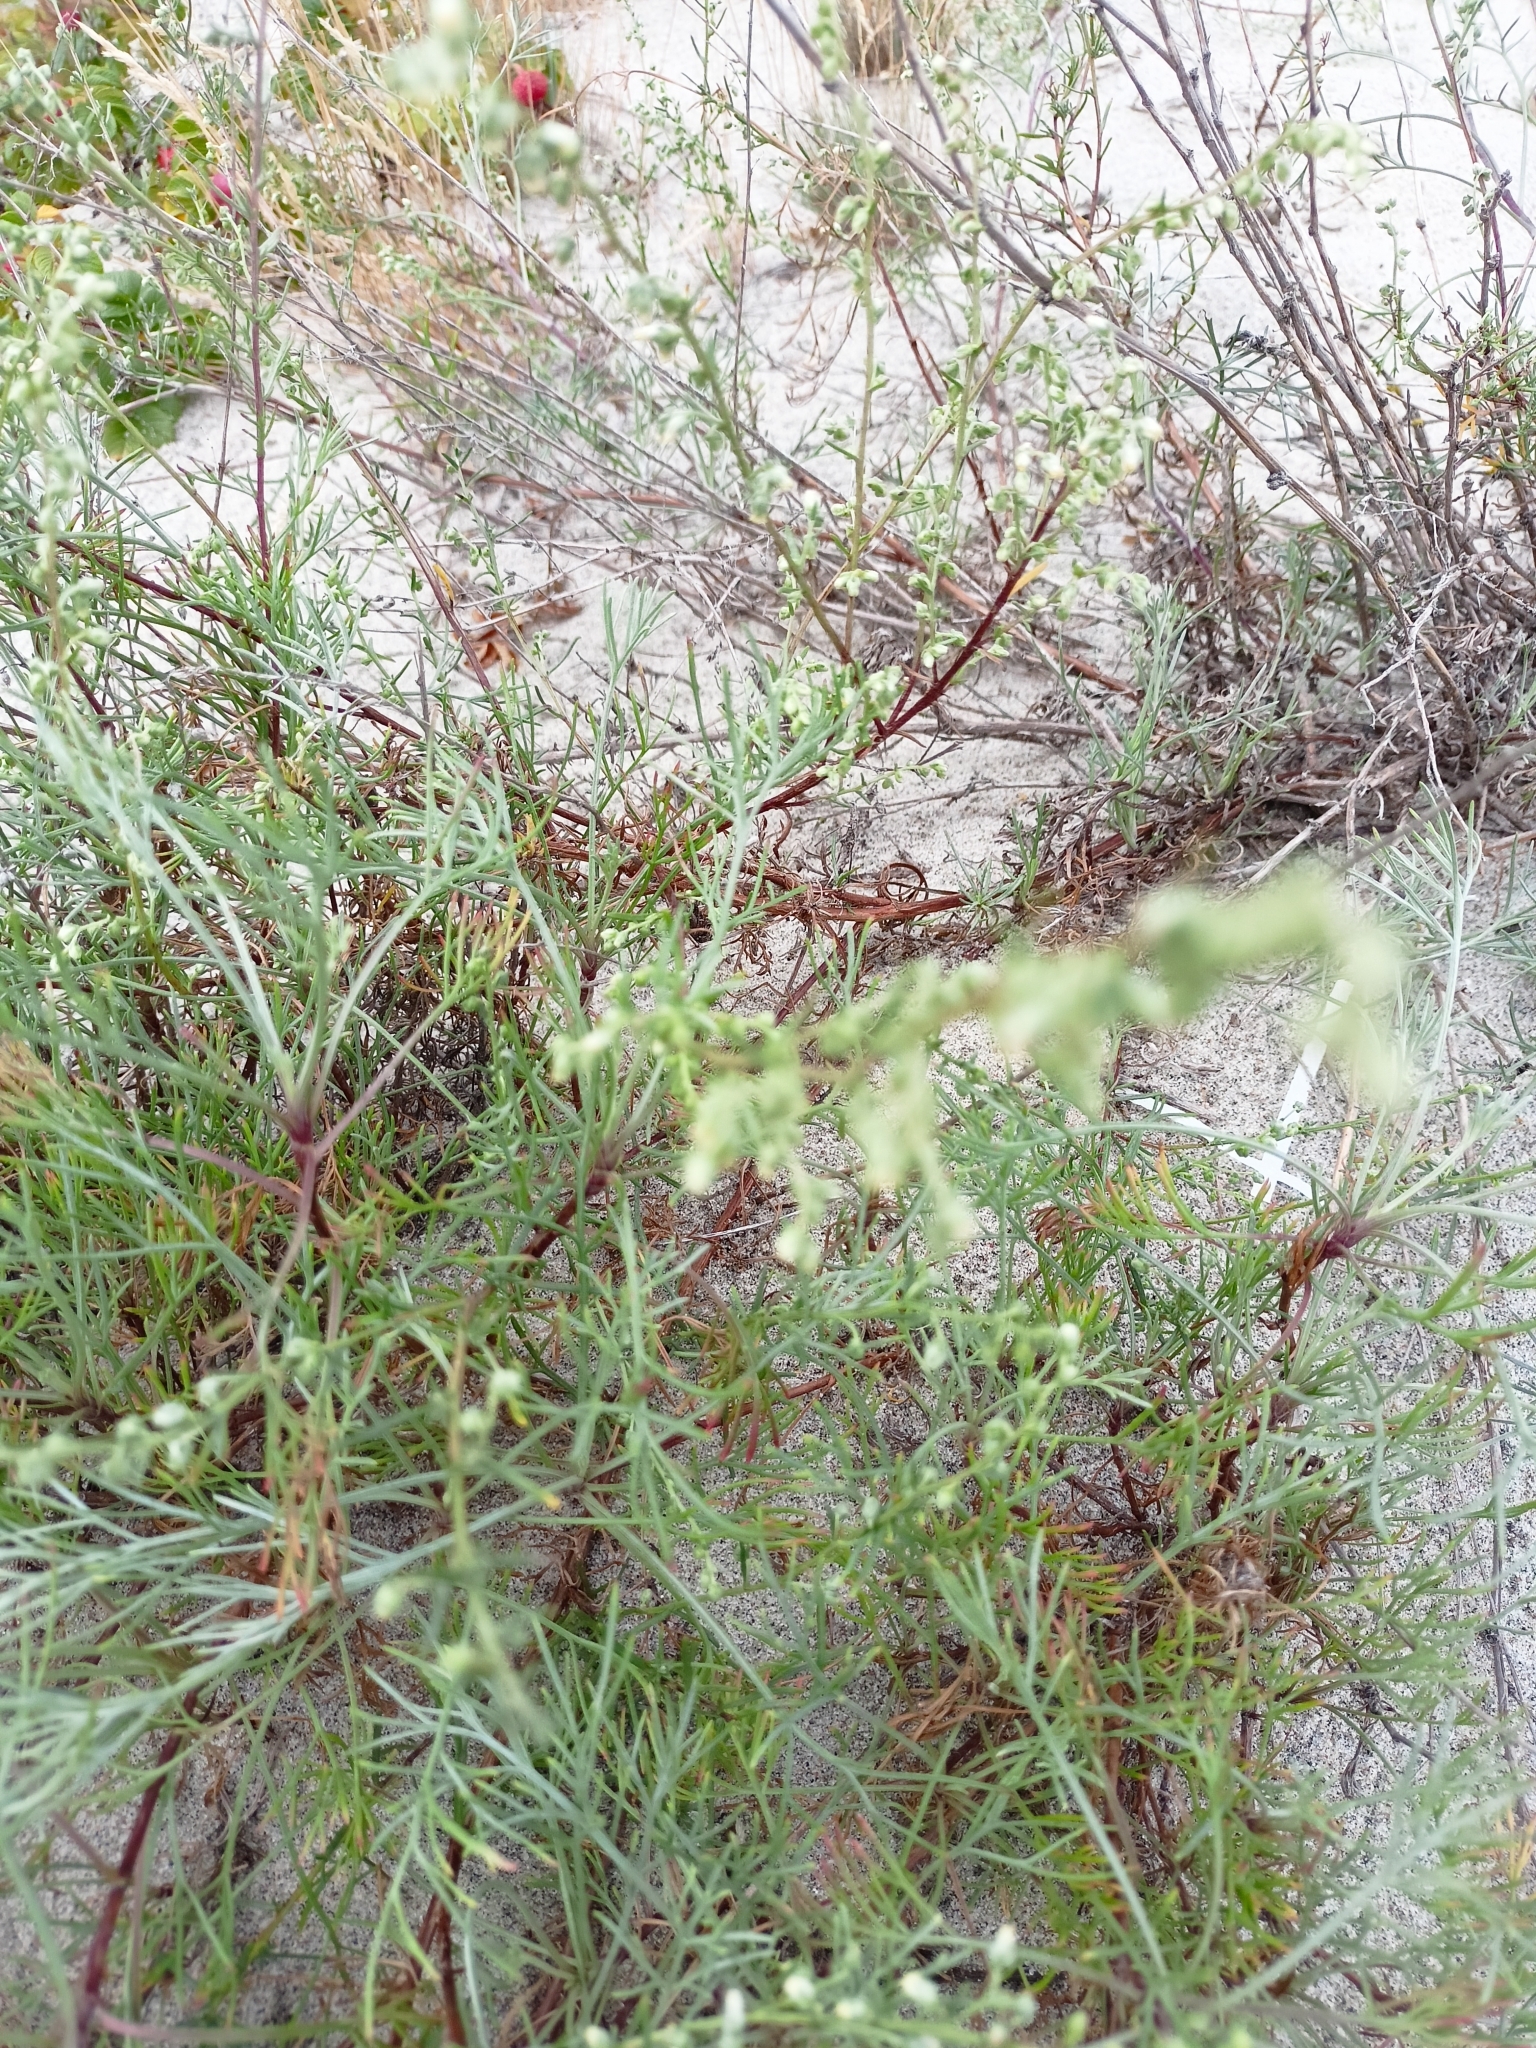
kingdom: Plantae
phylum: Tracheophyta
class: Magnoliopsida
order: Asterales
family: Asteraceae
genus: Artemisia
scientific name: Artemisia campestris
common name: Field wormwood
